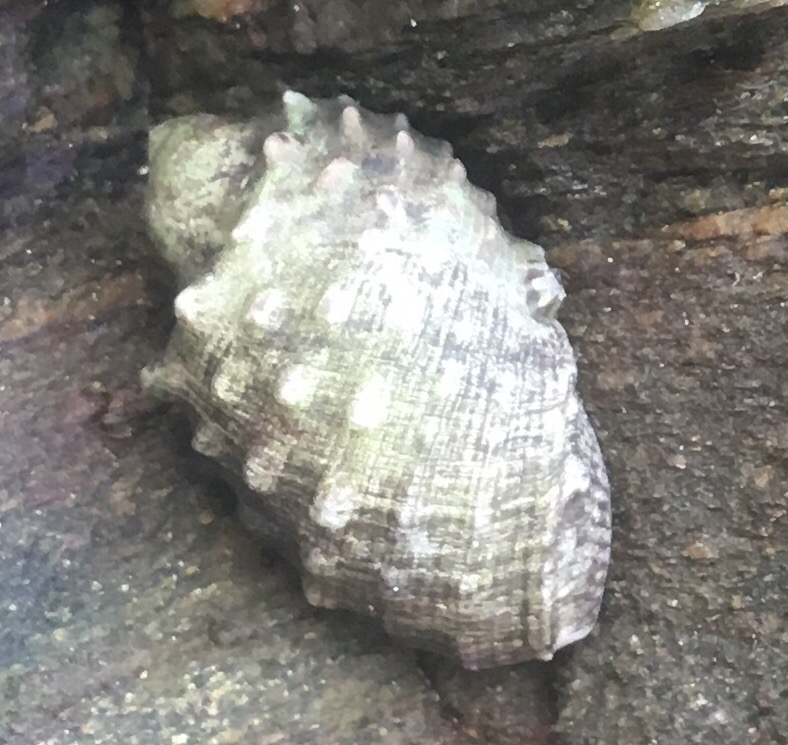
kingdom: Animalia
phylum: Mollusca
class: Gastropoda
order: Neogastropoda
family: Muricidae
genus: Plicopurpura
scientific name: Plicopurpura patula
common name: Wide-mouthed dye shell
